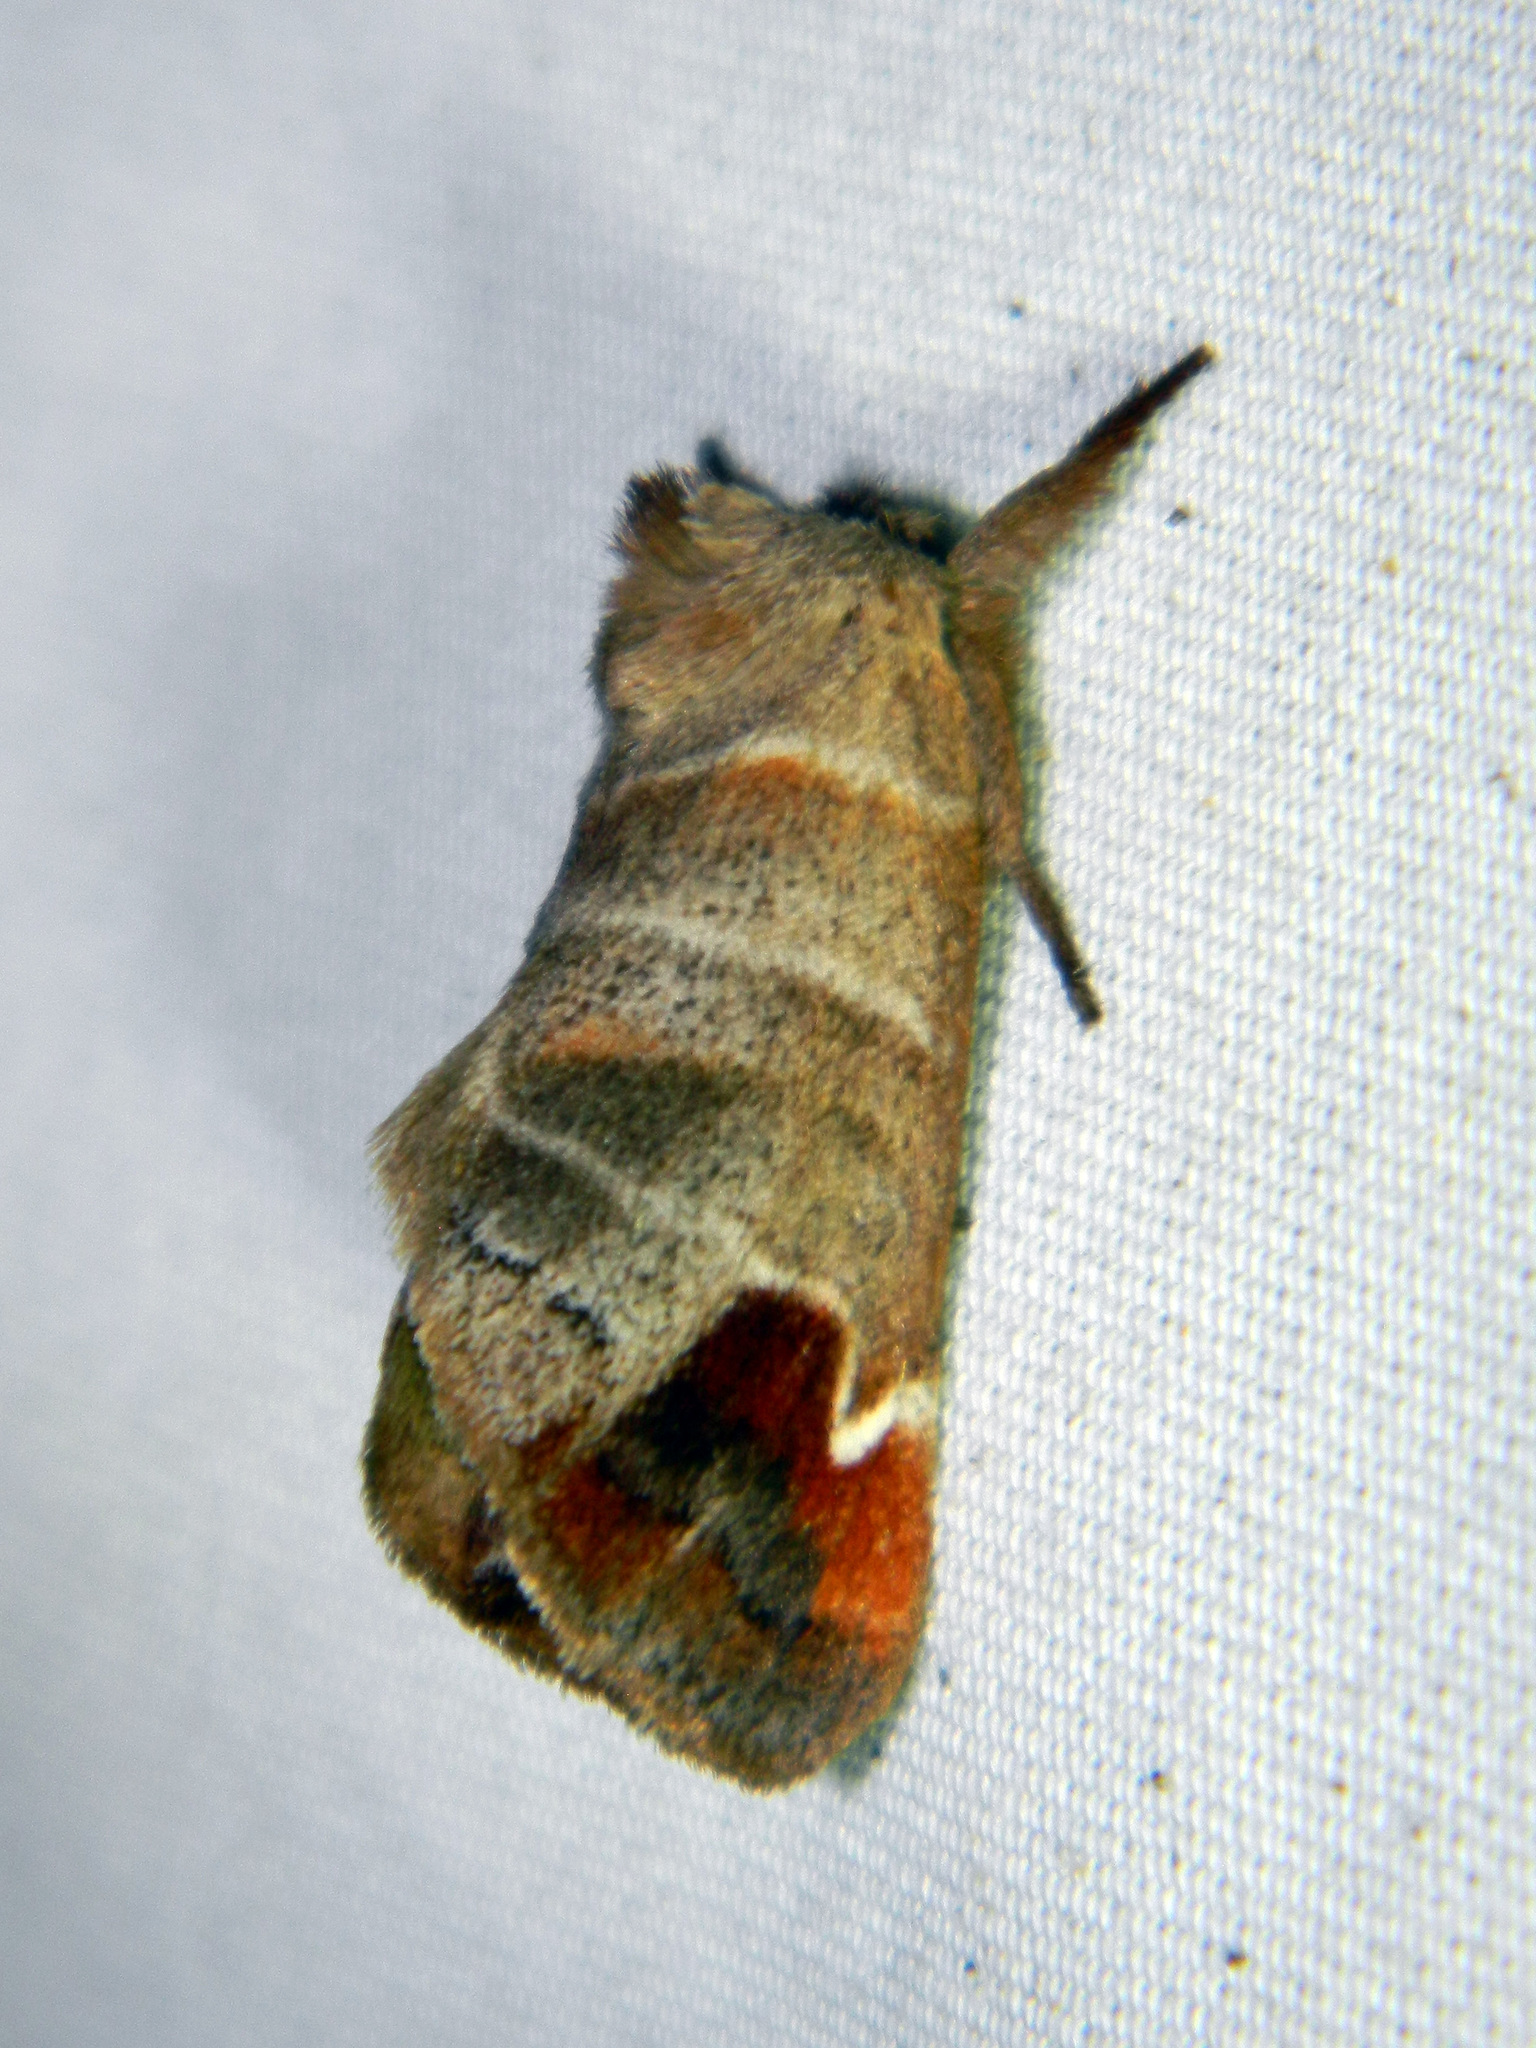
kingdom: Animalia
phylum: Arthropoda
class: Insecta
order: Lepidoptera
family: Notodontidae
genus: Clostera
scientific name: Clostera albosigma
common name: Sigmoid prominent
